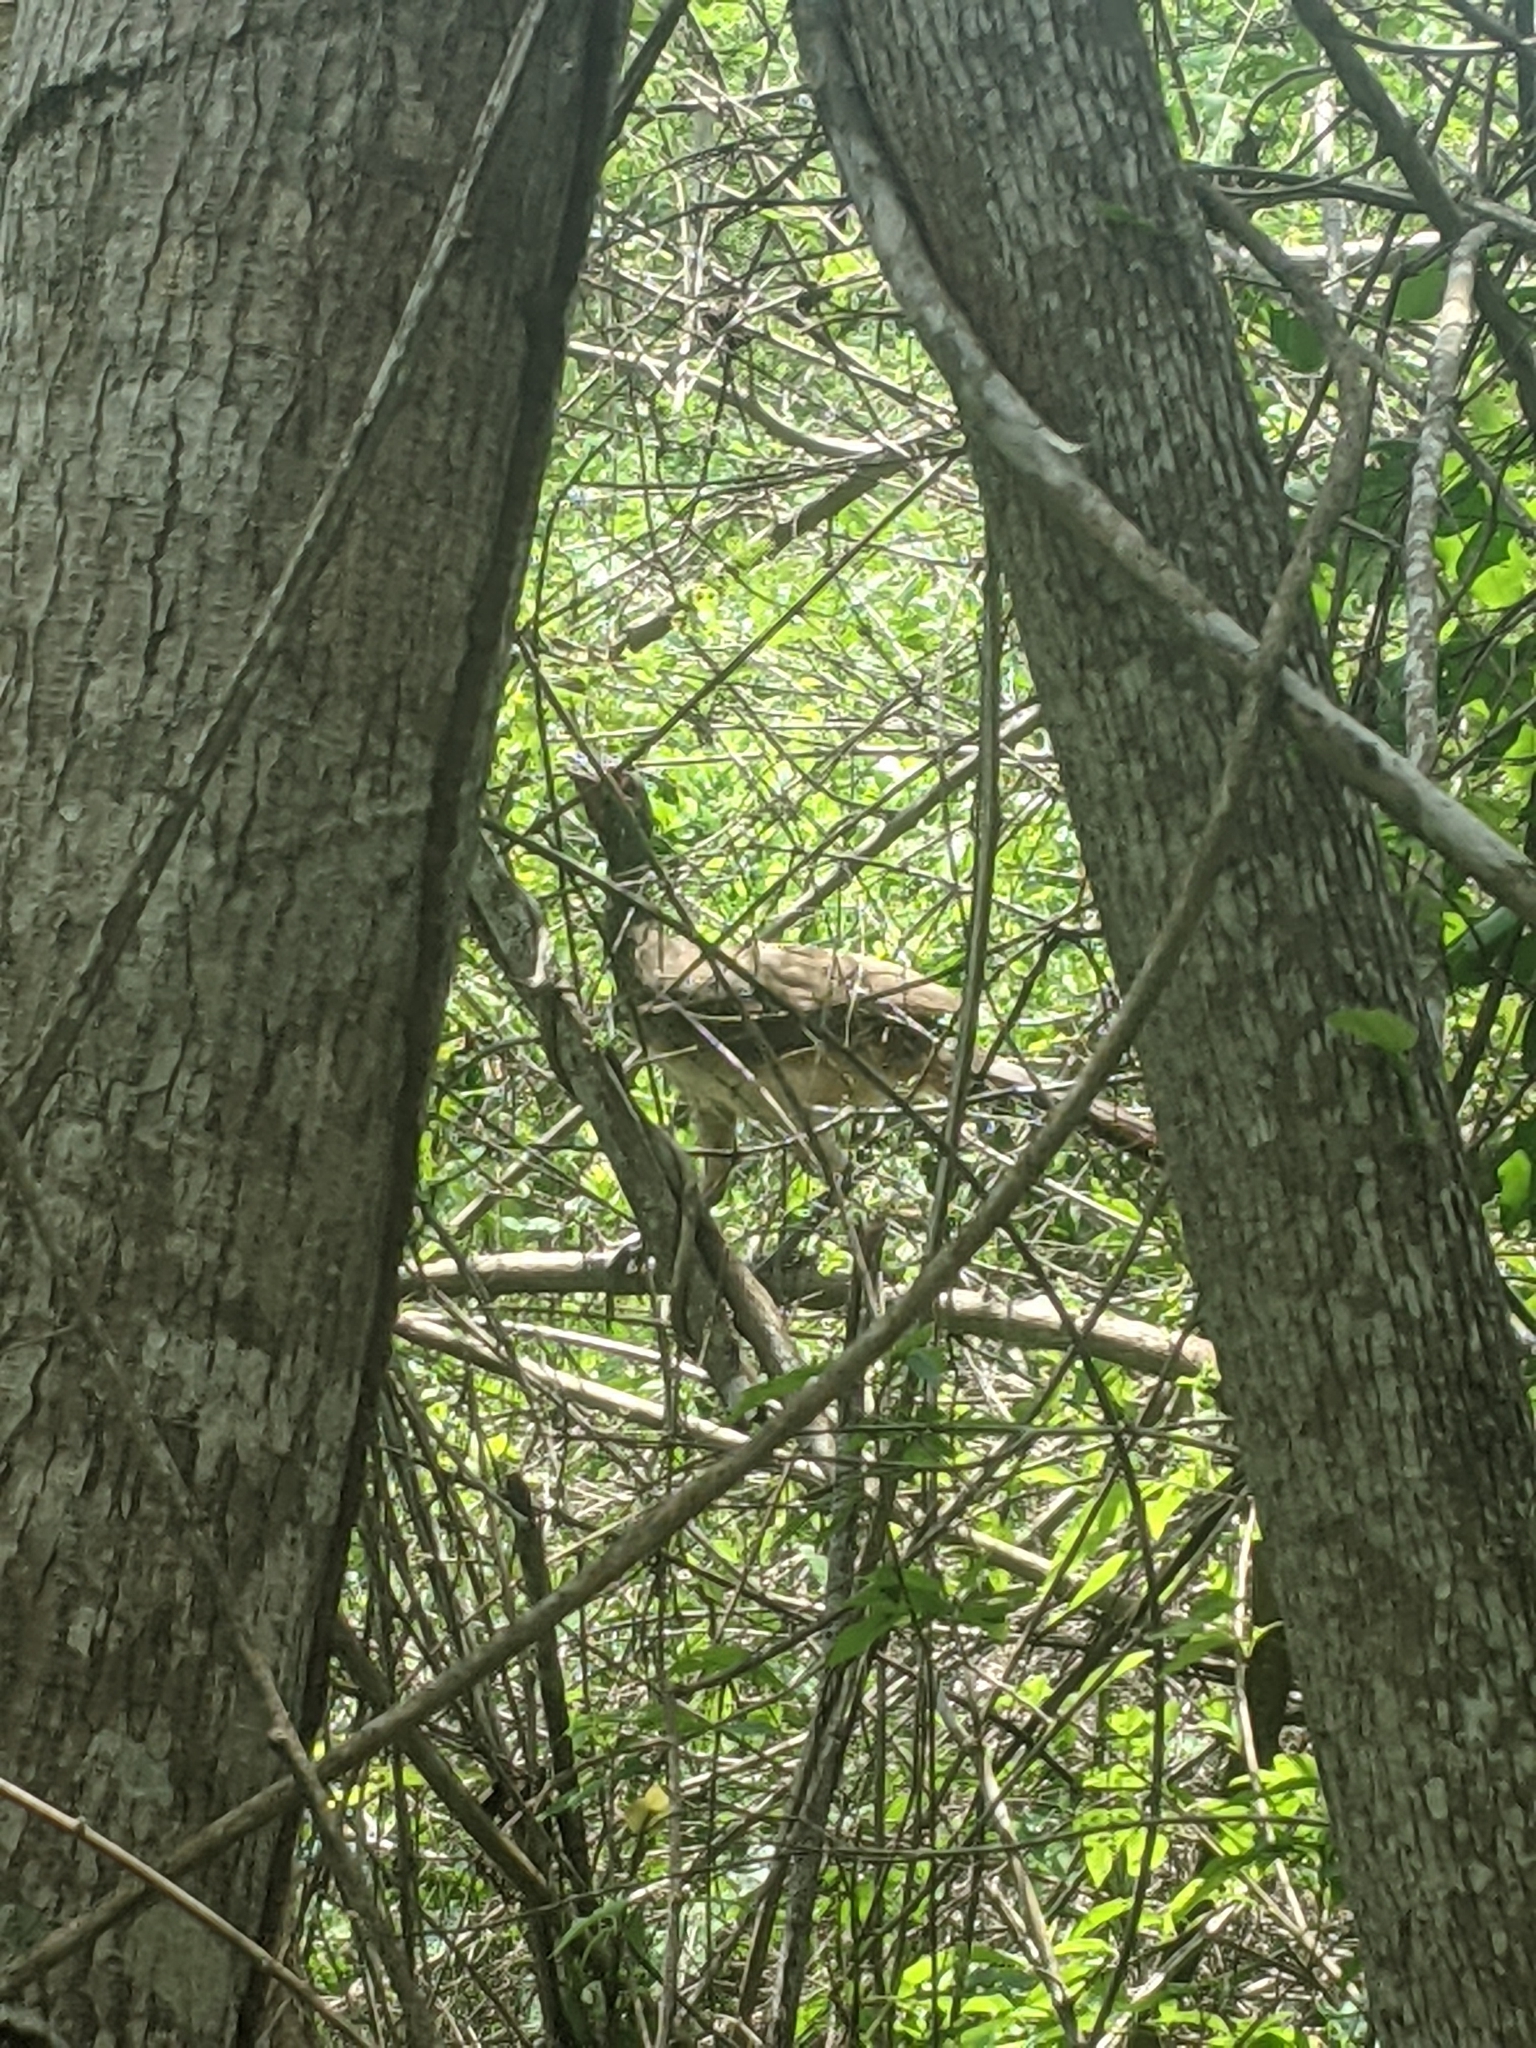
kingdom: Animalia
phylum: Chordata
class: Aves
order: Galliformes
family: Cracidae
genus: Ortalis
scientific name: Ortalis poliocephala
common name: West mexican chachalaca
